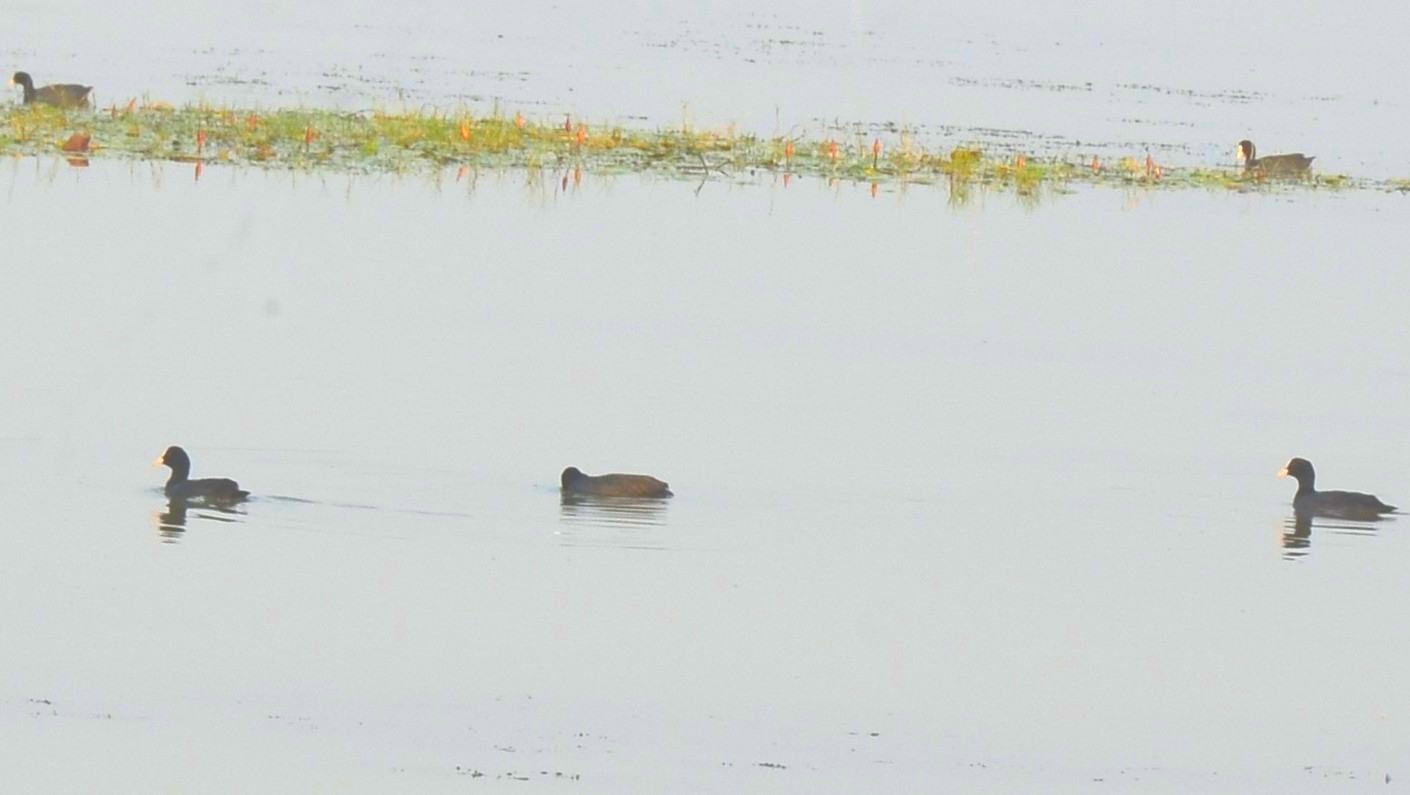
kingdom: Animalia
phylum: Chordata
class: Aves
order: Gruiformes
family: Rallidae
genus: Fulica
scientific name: Fulica atra
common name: Eurasian coot
